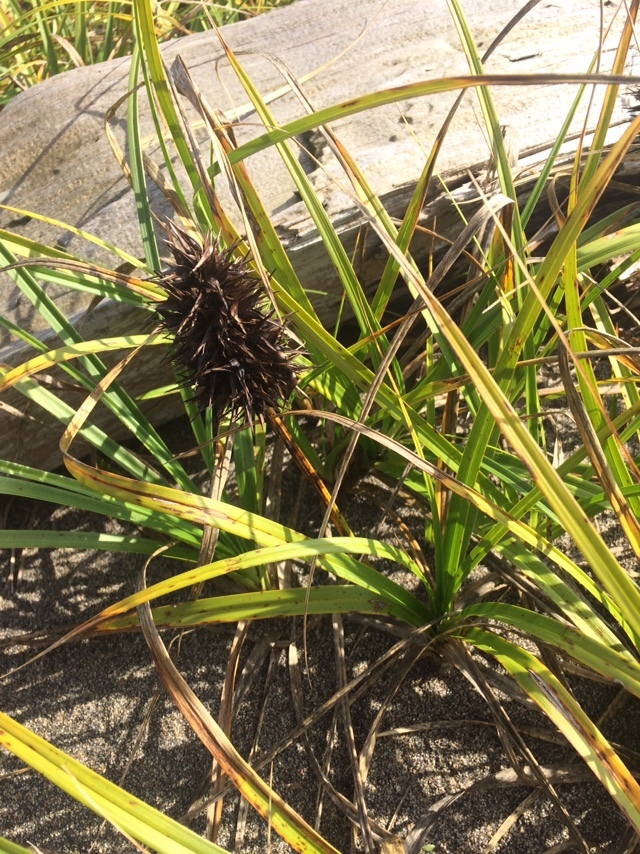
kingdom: Plantae
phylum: Tracheophyta
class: Liliopsida
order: Poales
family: Cyperaceae
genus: Carex
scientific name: Carex macrocephala
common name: Large-head sedge
